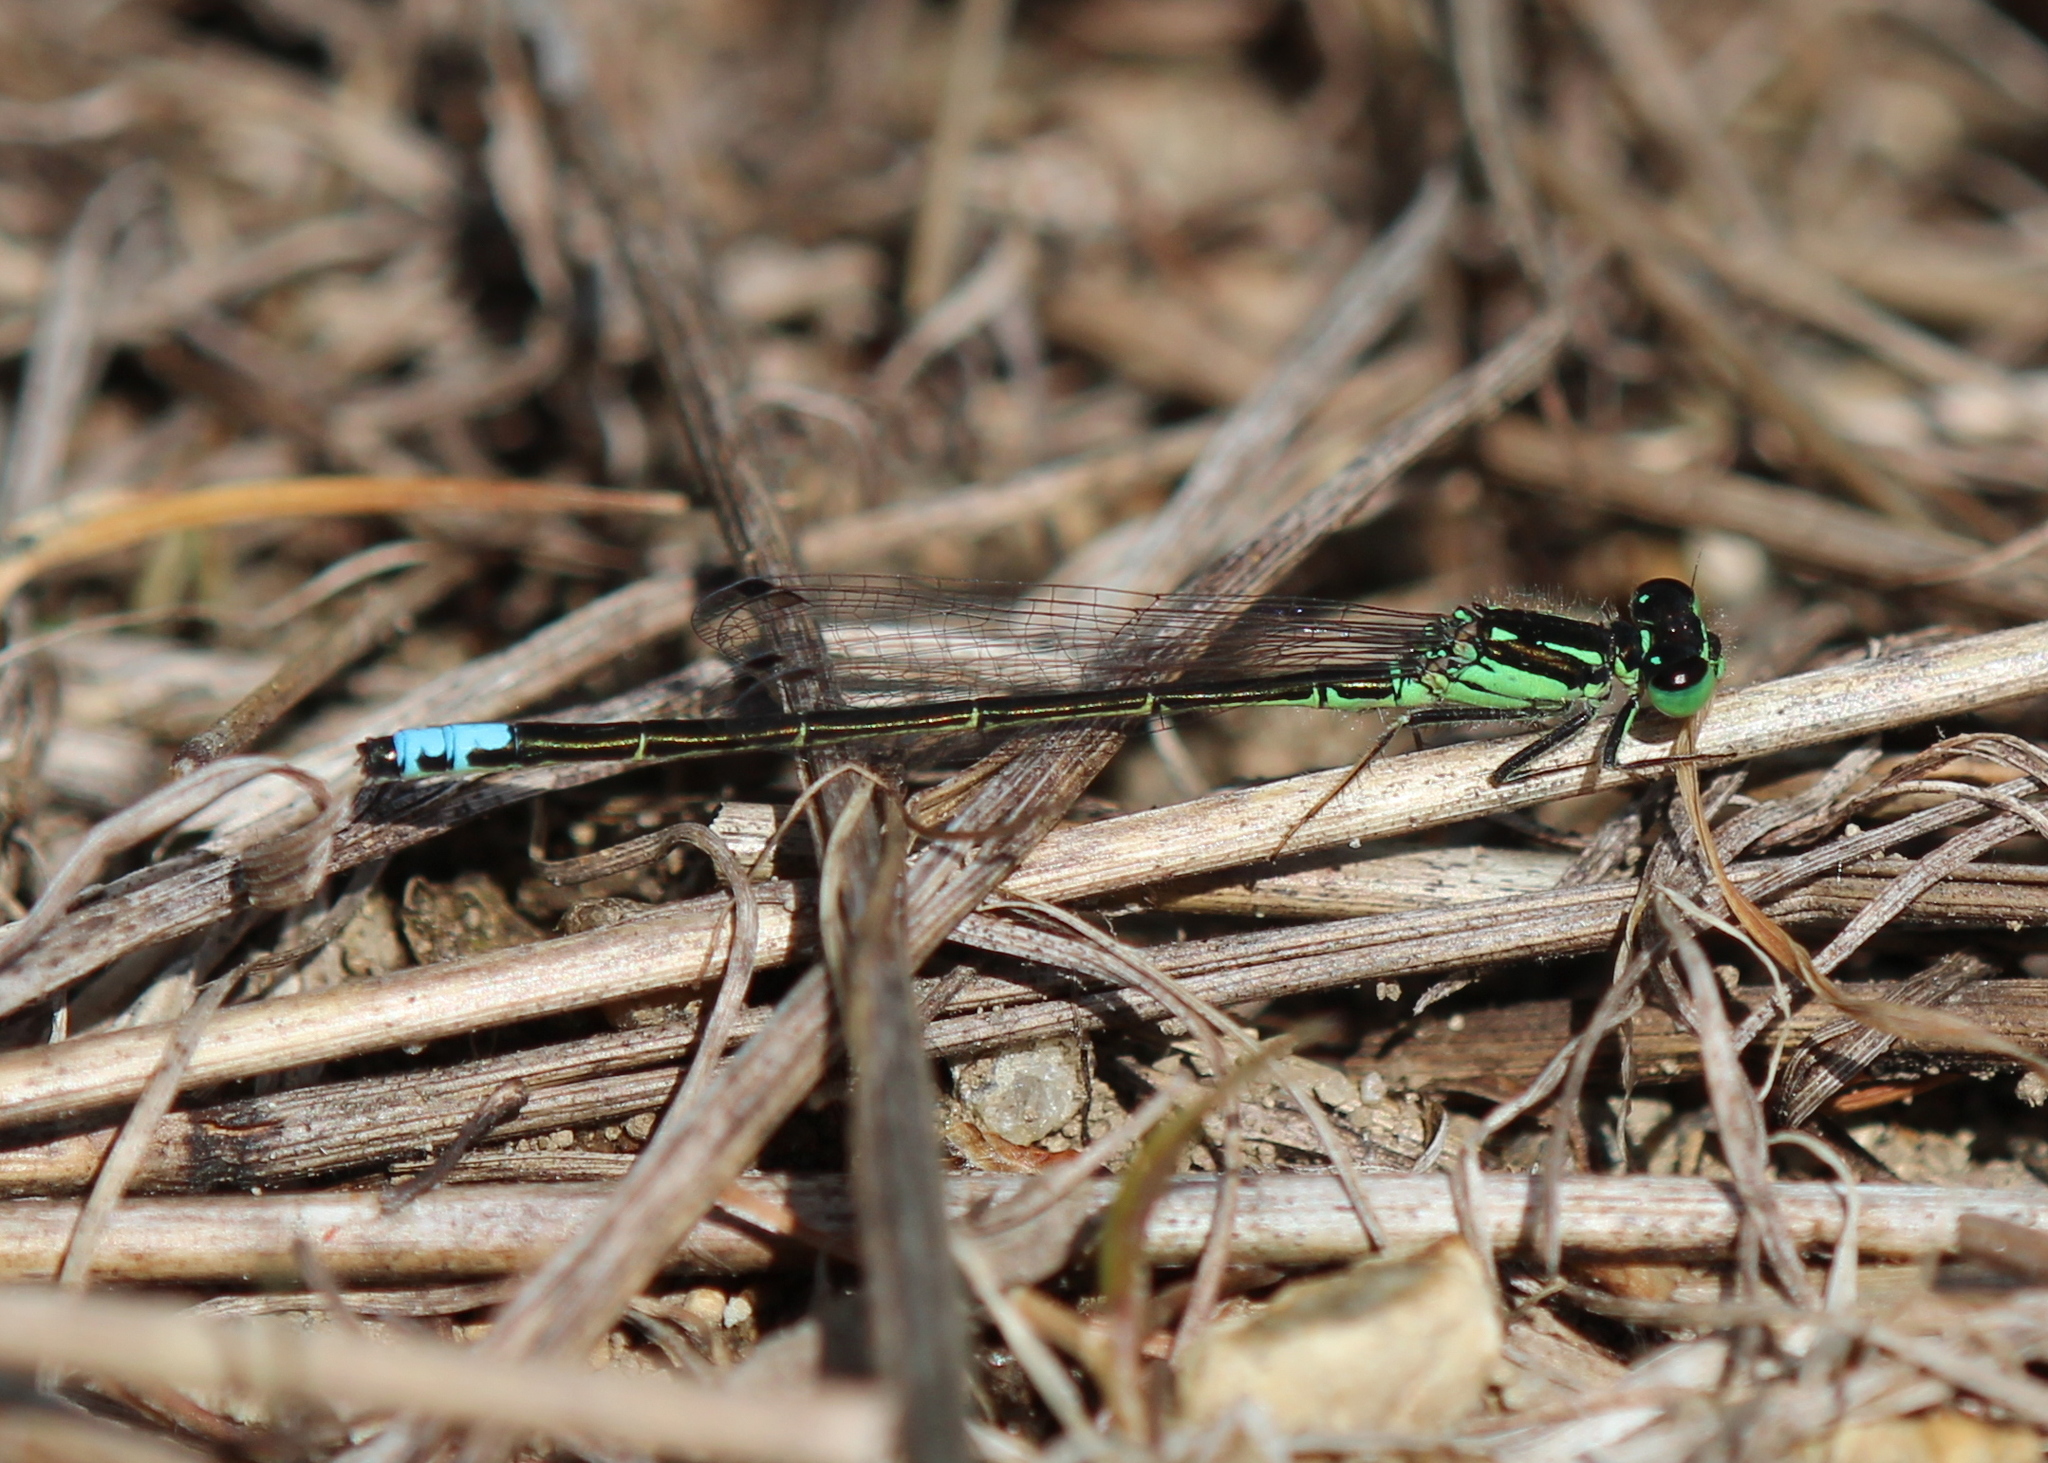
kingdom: Animalia
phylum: Arthropoda
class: Insecta
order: Odonata
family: Coenagrionidae
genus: Ischnura
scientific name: Ischnura verticalis
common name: Eastern forktail
